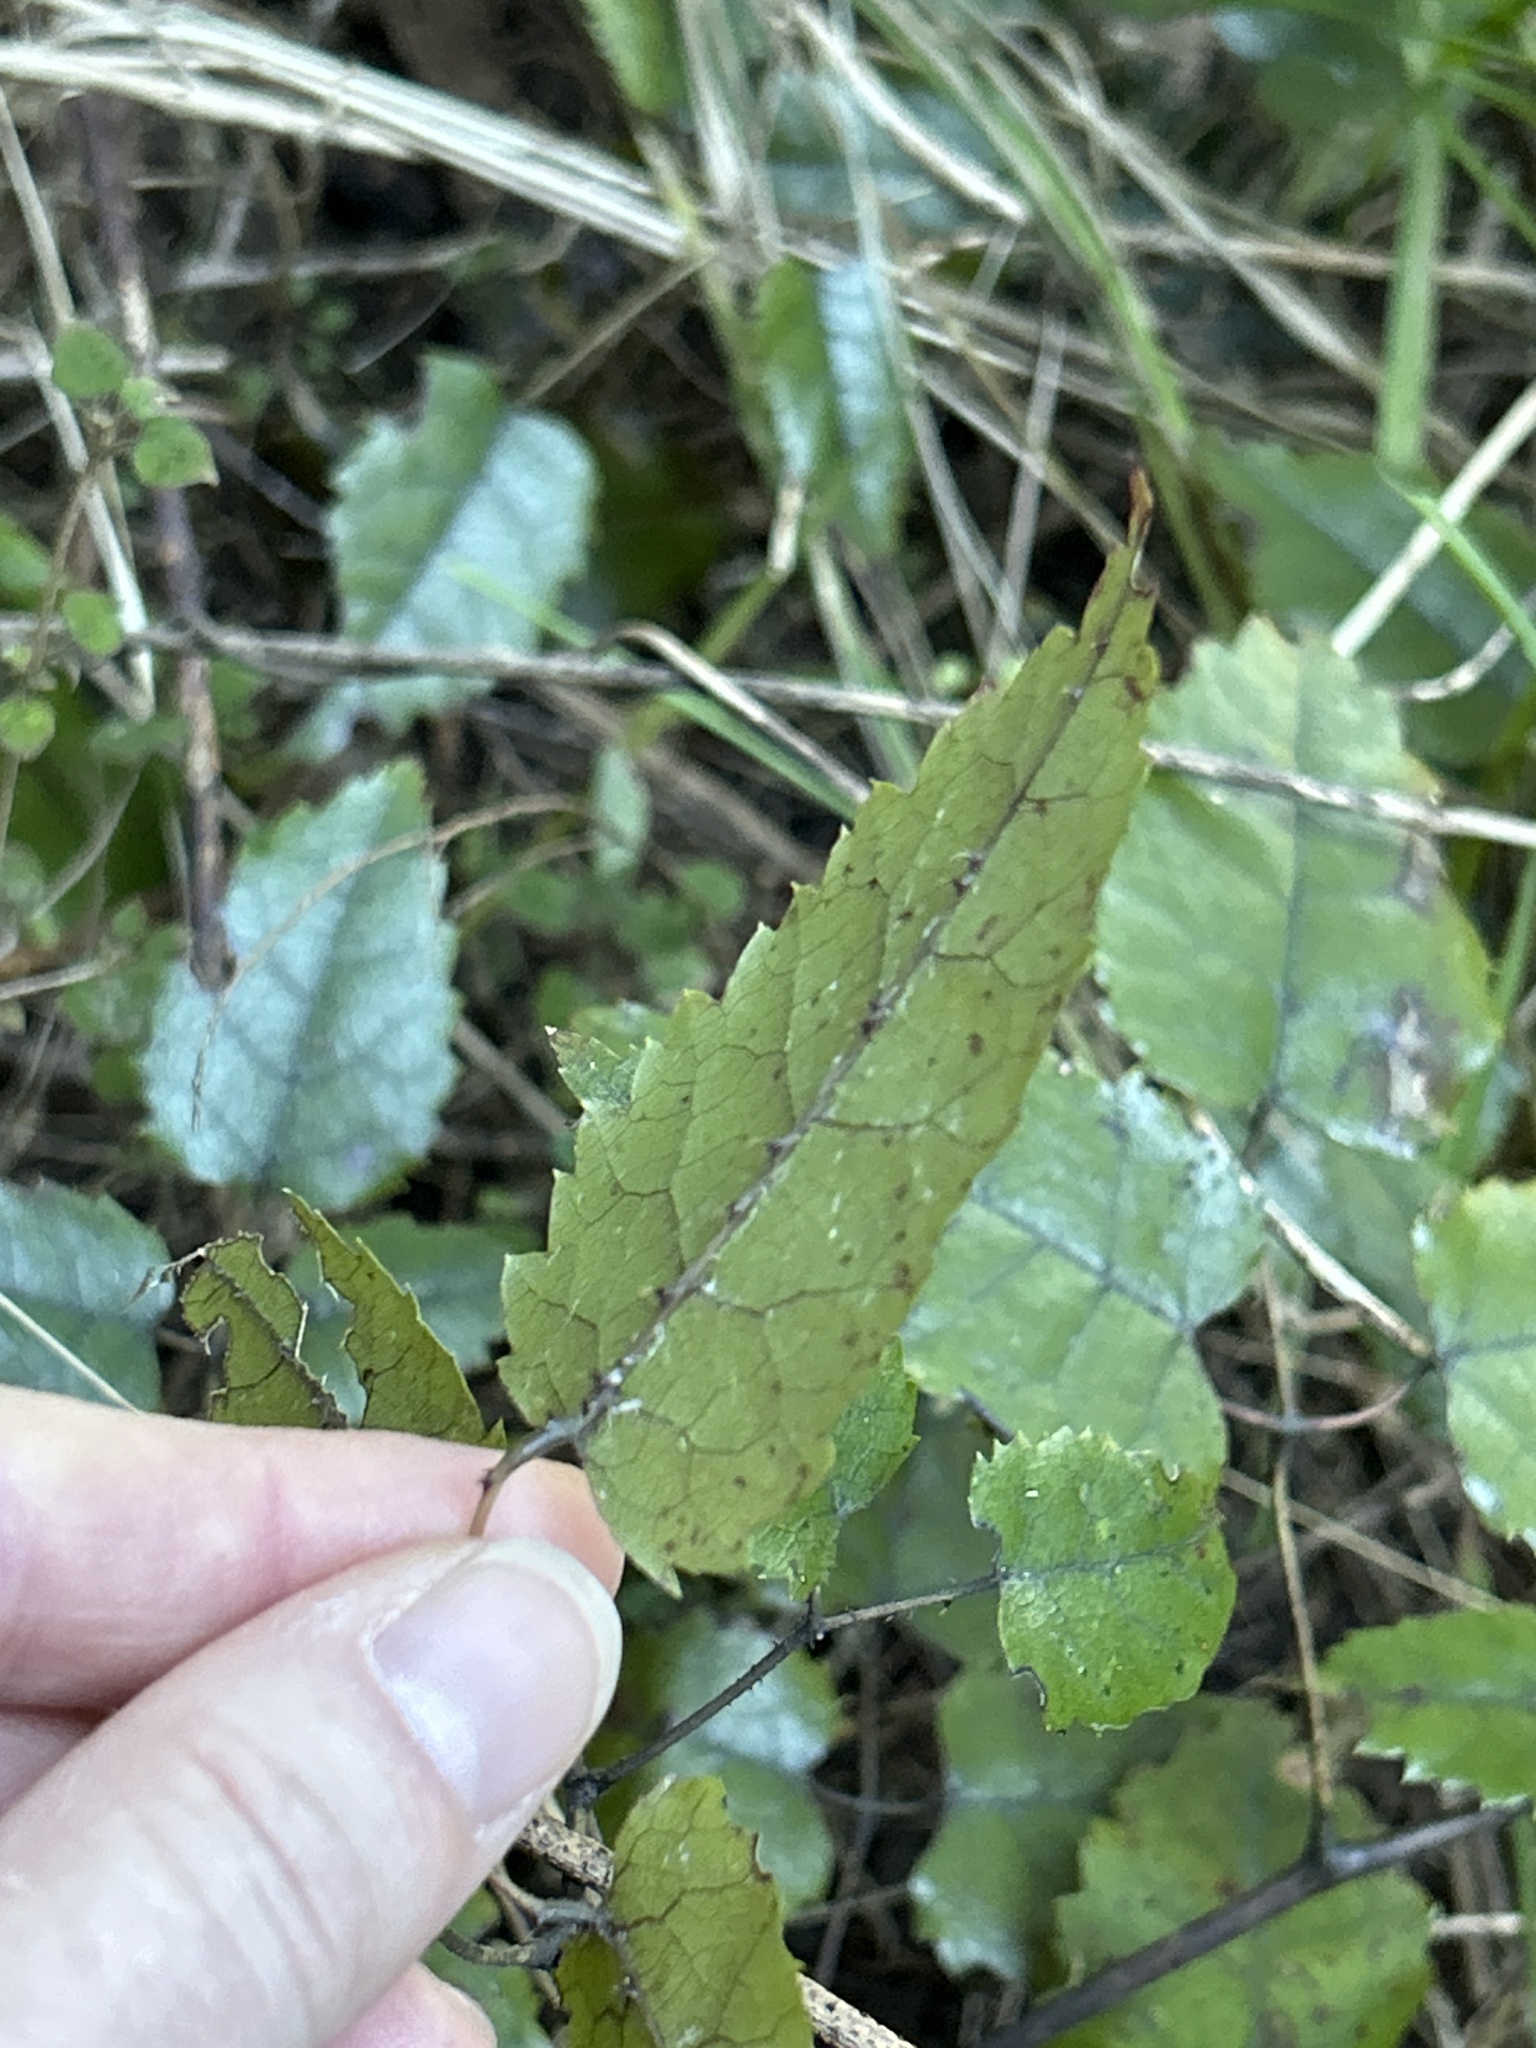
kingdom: Plantae
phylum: Tracheophyta
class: Magnoliopsida
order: Rosales
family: Rosaceae
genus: Rubus
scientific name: Rubus cissoides
